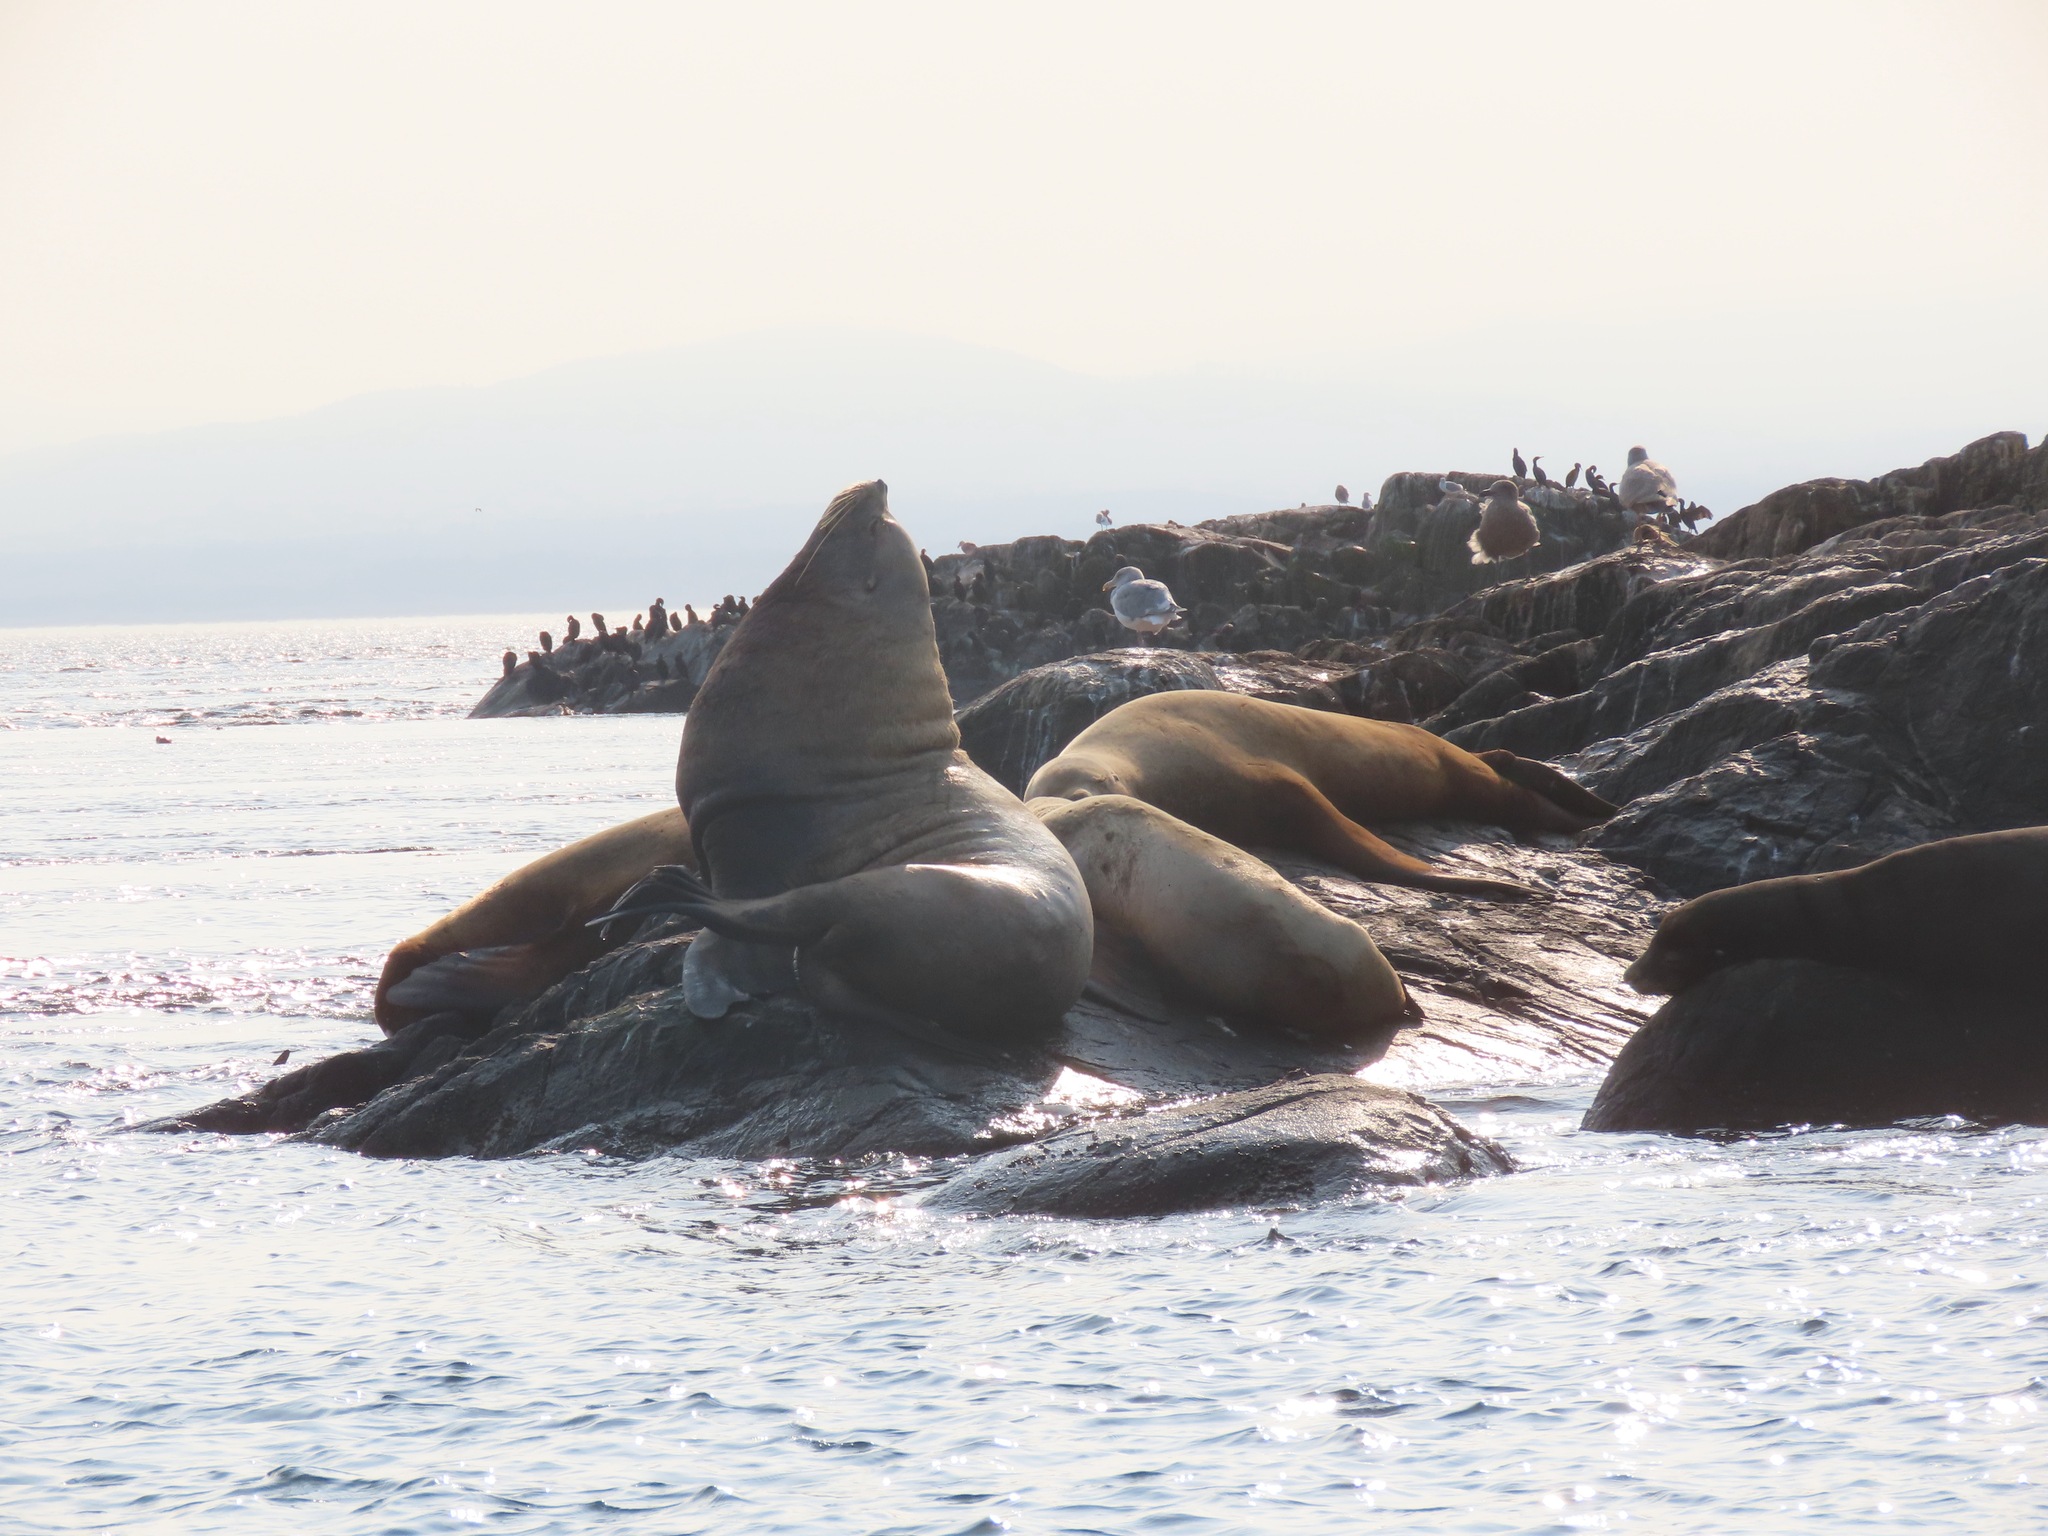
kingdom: Animalia
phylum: Chordata
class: Mammalia
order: Carnivora
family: Otariidae
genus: Eumetopias
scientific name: Eumetopias jubatus
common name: Steller sea lion
